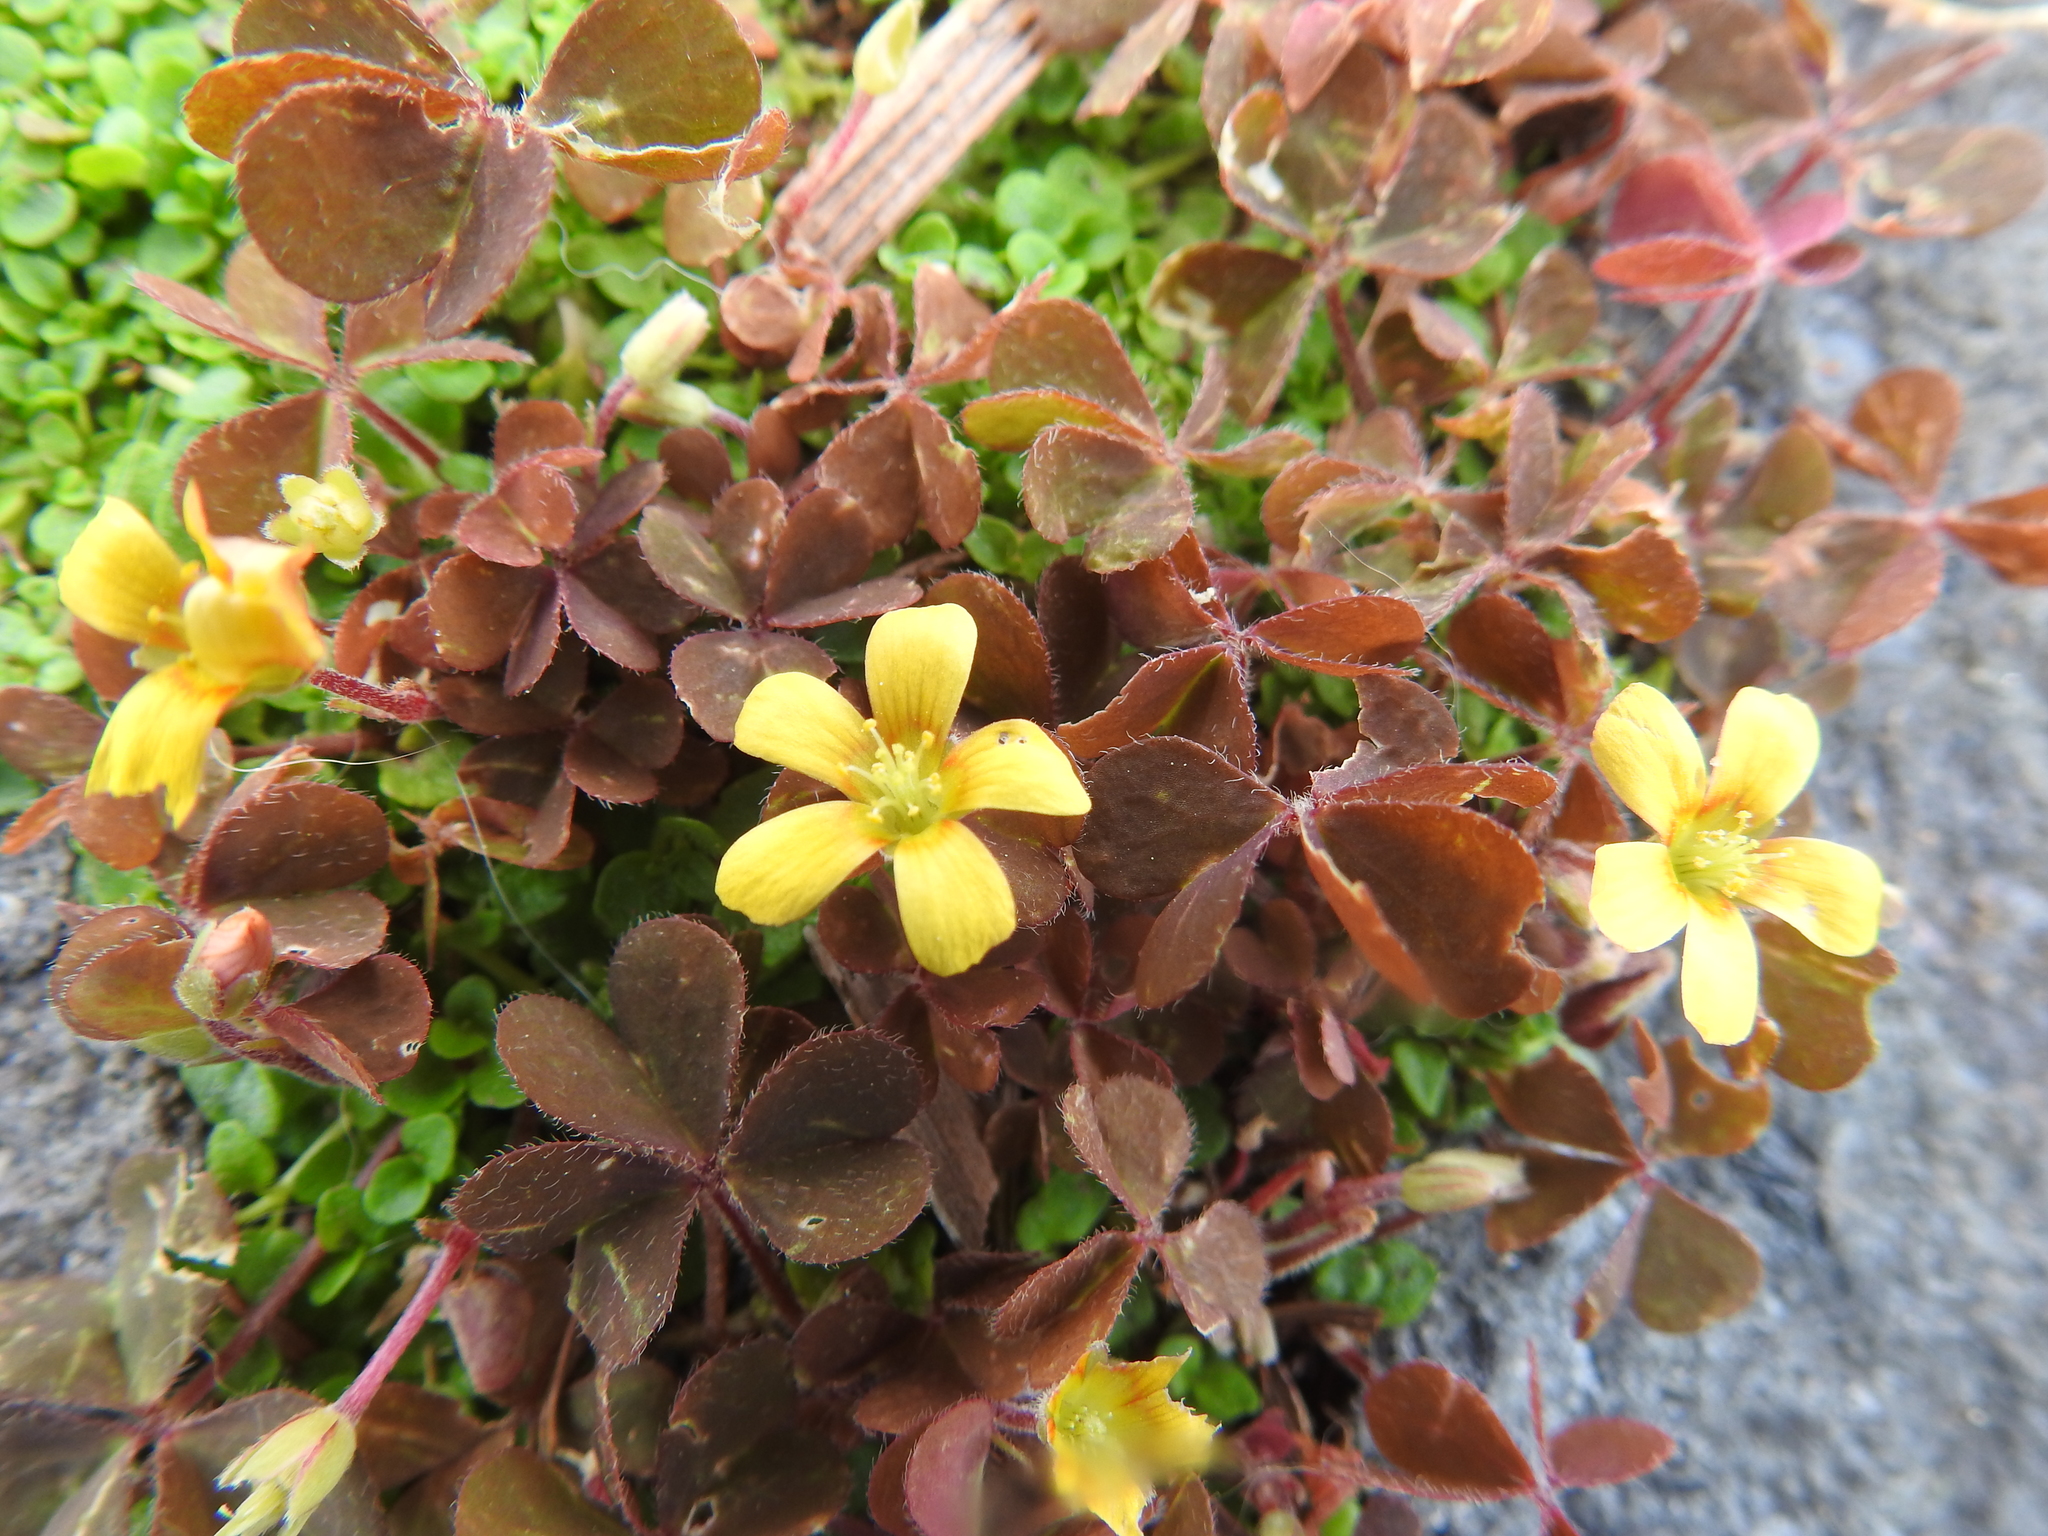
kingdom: Plantae
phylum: Tracheophyta
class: Magnoliopsida
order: Oxalidales
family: Oxalidaceae
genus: Oxalis
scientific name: Oxalis corniculata
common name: Procumbent yellow-sorrel
